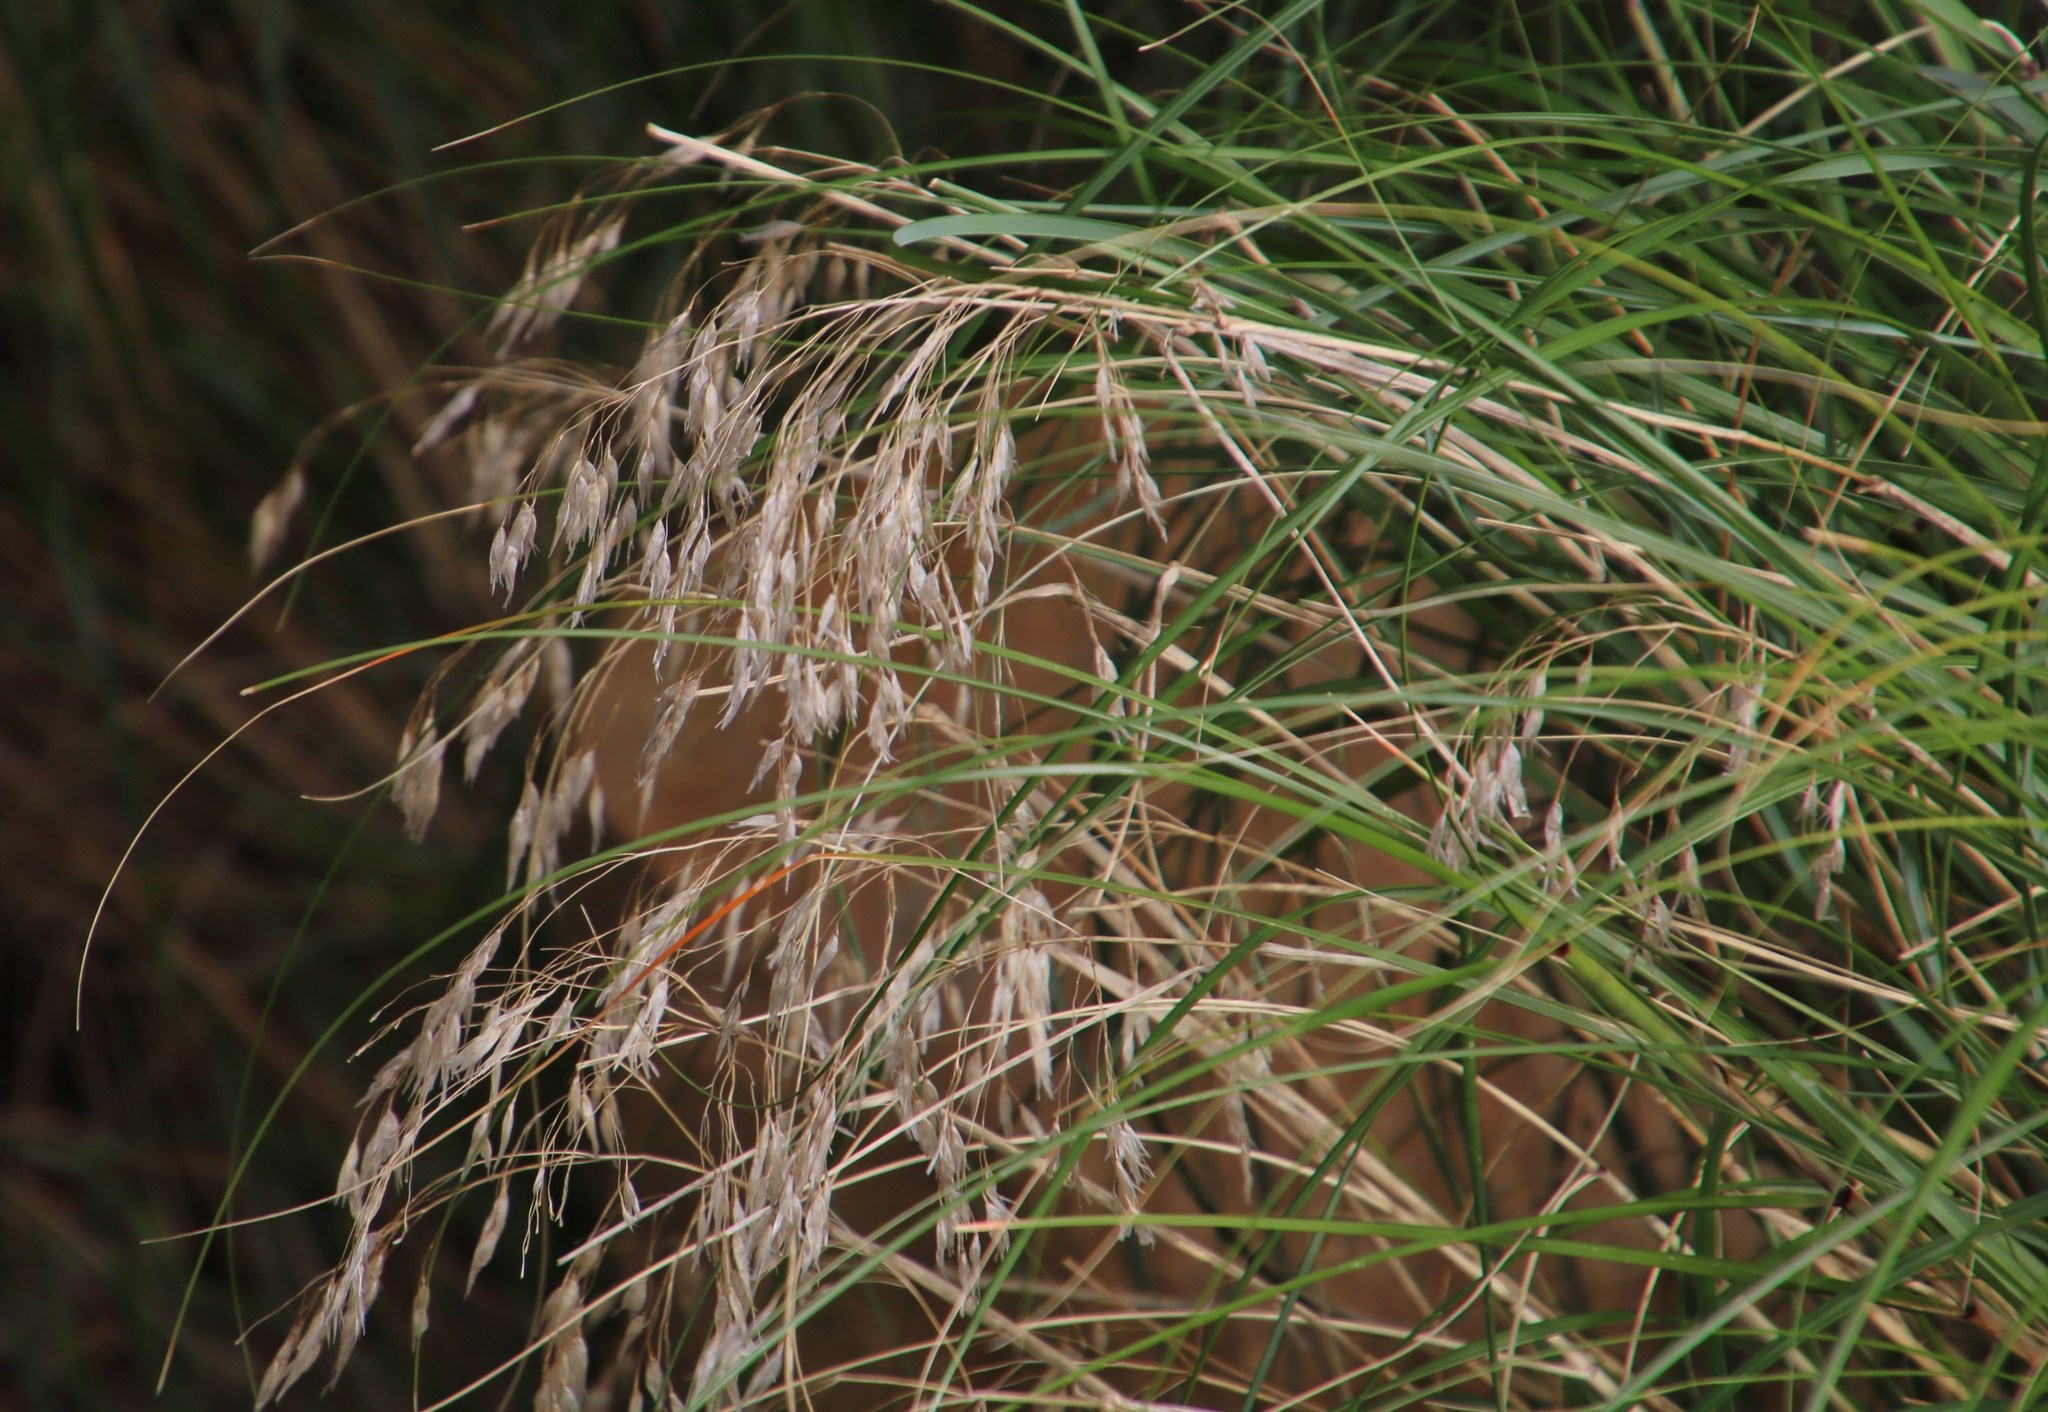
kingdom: Plantae
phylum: Tracheophyta
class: Liliopsida
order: Poales
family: Poaceae
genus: Pentameris
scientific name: Pentameris thuarii
